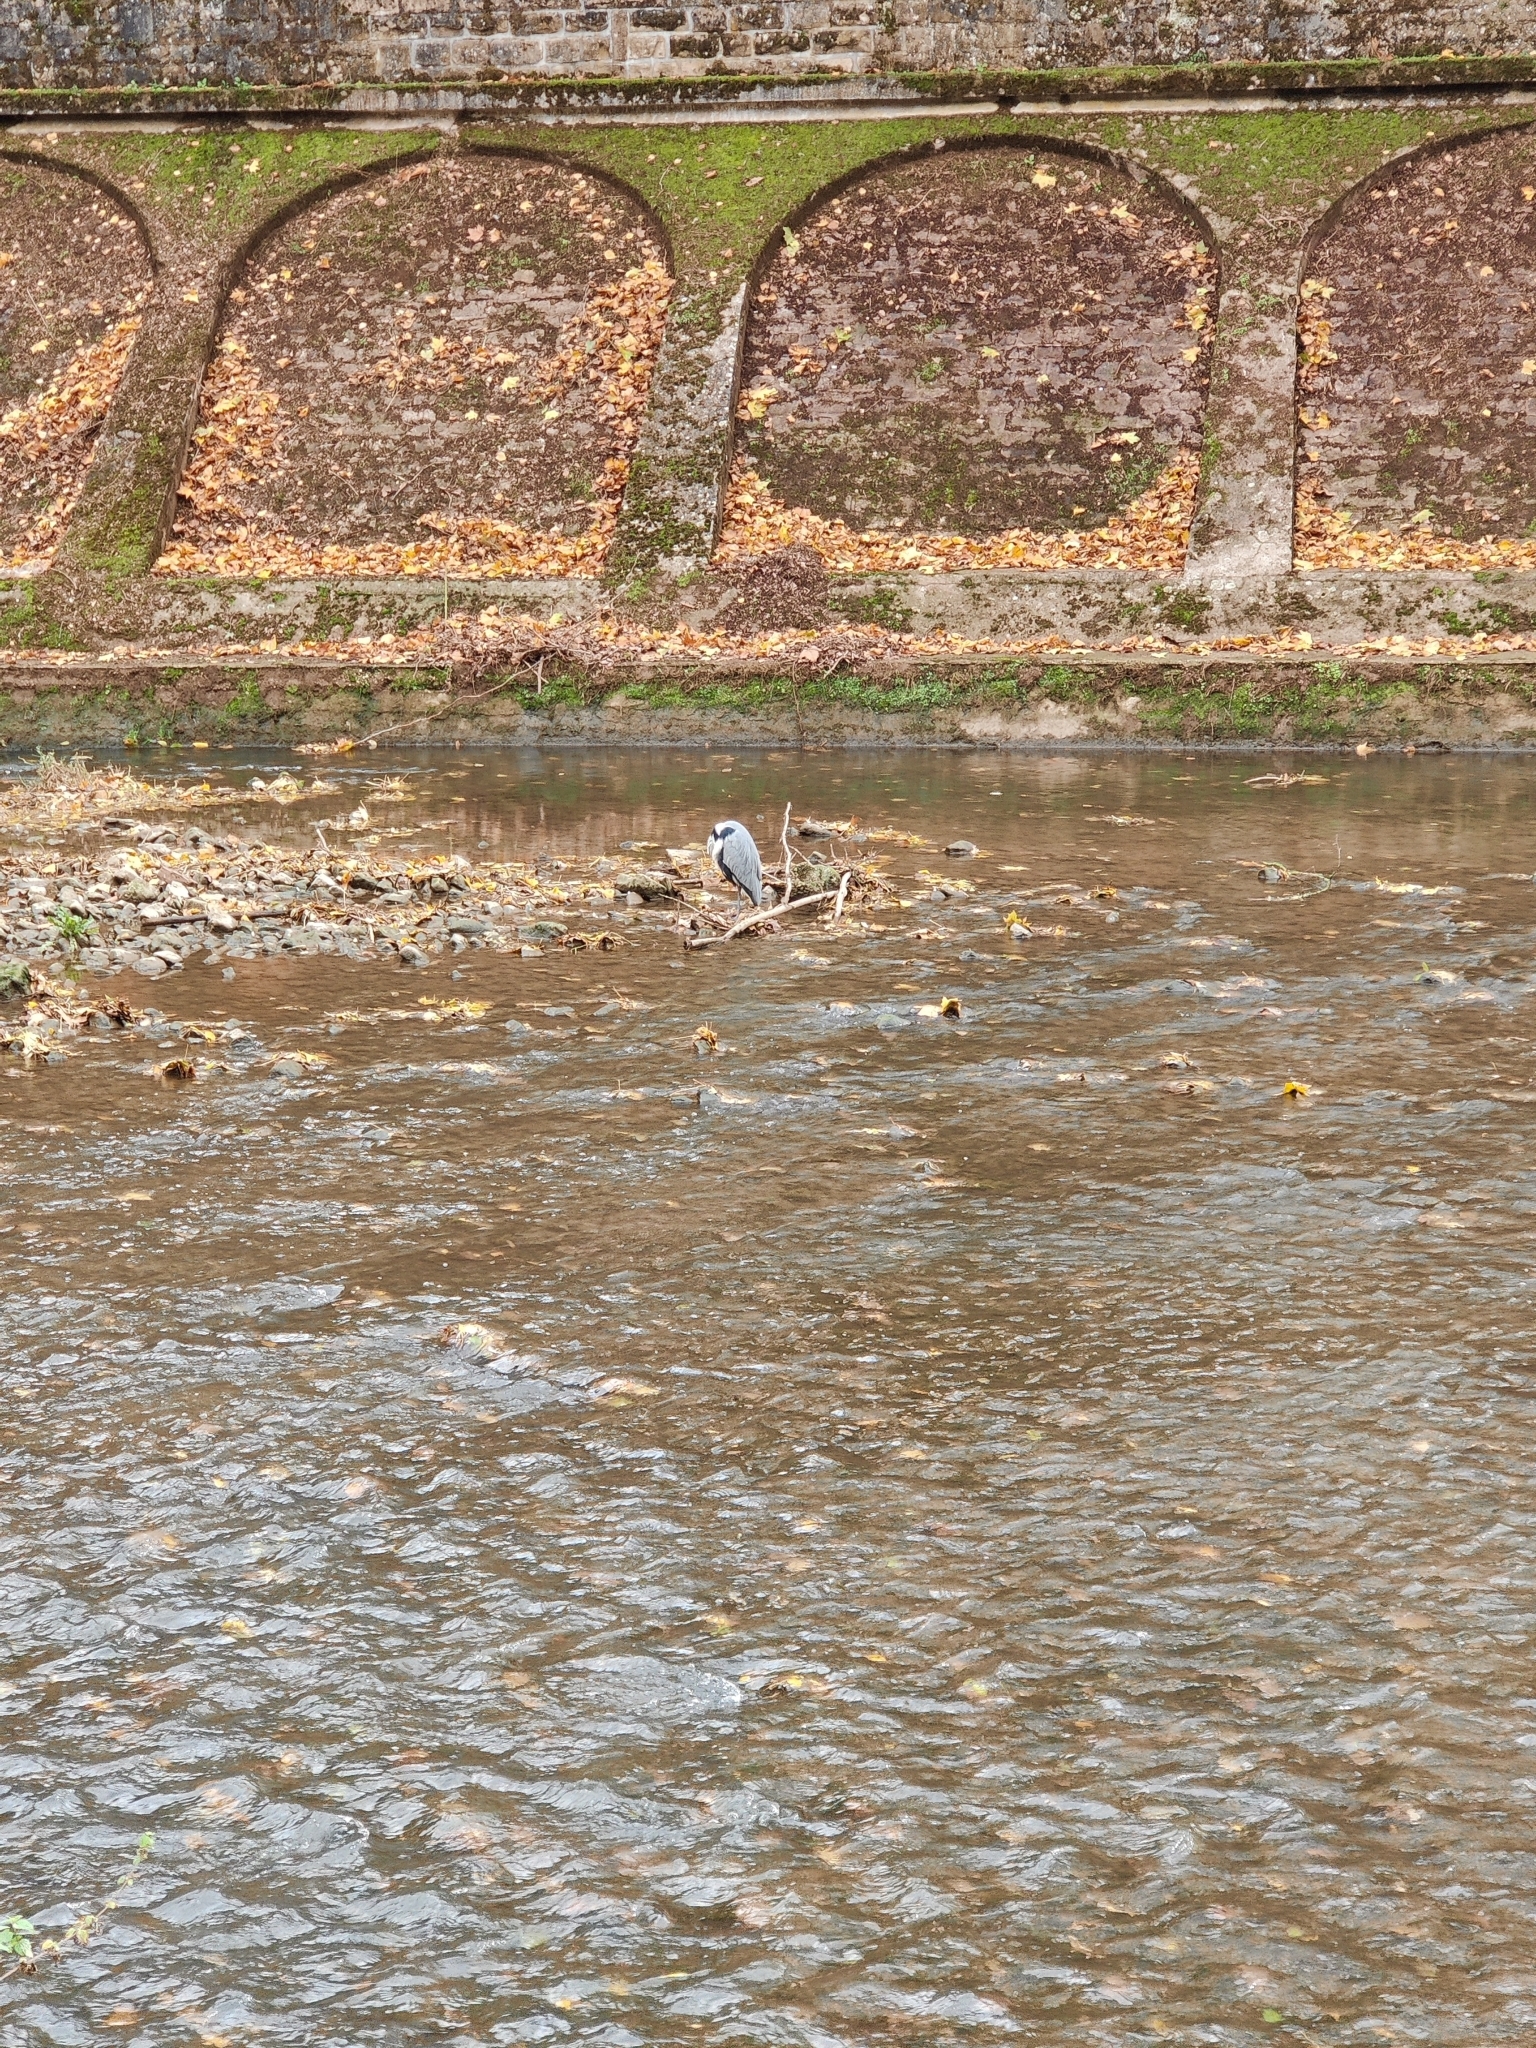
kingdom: Animalia
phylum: Chordata
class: Aves
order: Pelecaniformes
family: Ardeidae
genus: Ardea
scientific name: Ardea cinerea
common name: Grey heron
